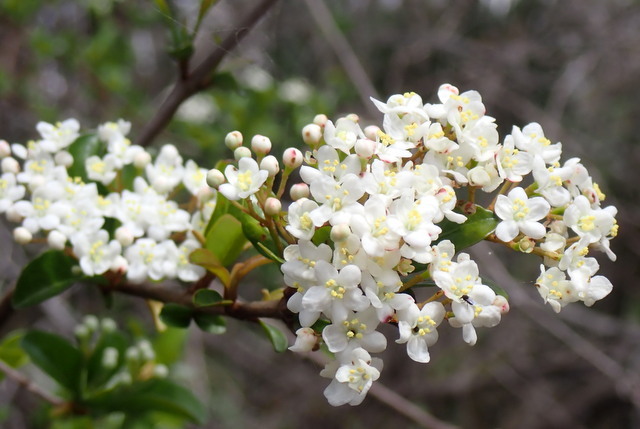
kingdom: Plantae
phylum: Tracheophyta
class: Magnoliopsida
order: Dipsacales
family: Viburnaceae
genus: Viburnum
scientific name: Viburnum obovatum
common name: Walter's viburnum
